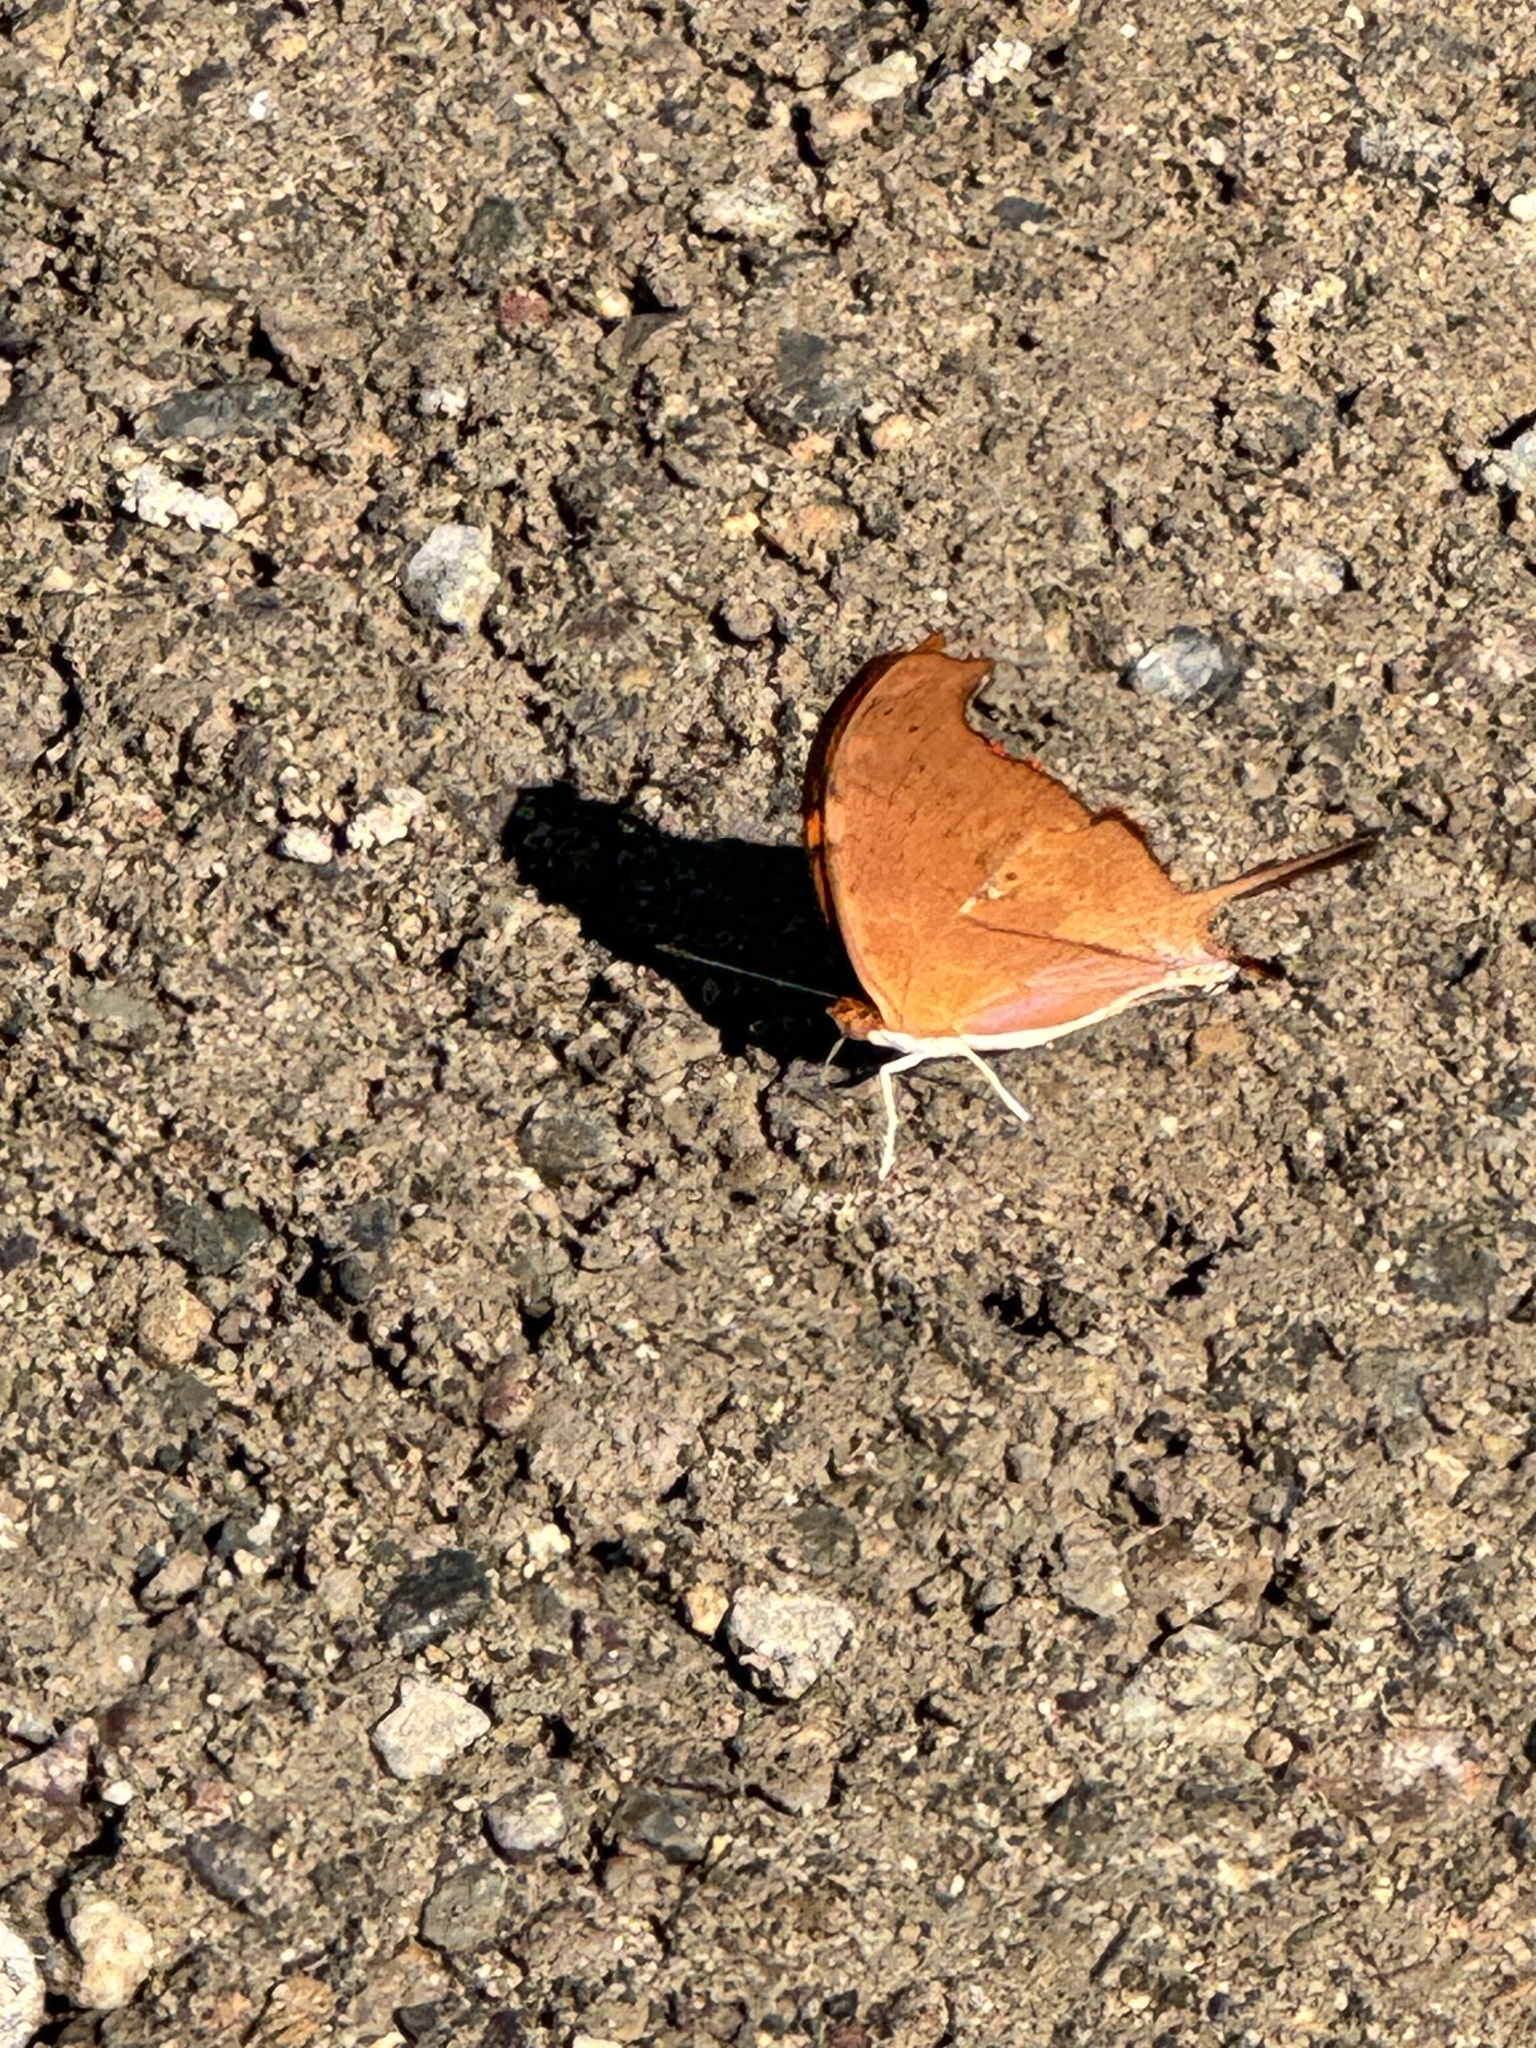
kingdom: Animalia
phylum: Arthropoda
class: Insecta
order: Lepidoptera
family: Nymphalidae
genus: Marpesia
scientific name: Marpesia petreus
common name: Red dagger wing
